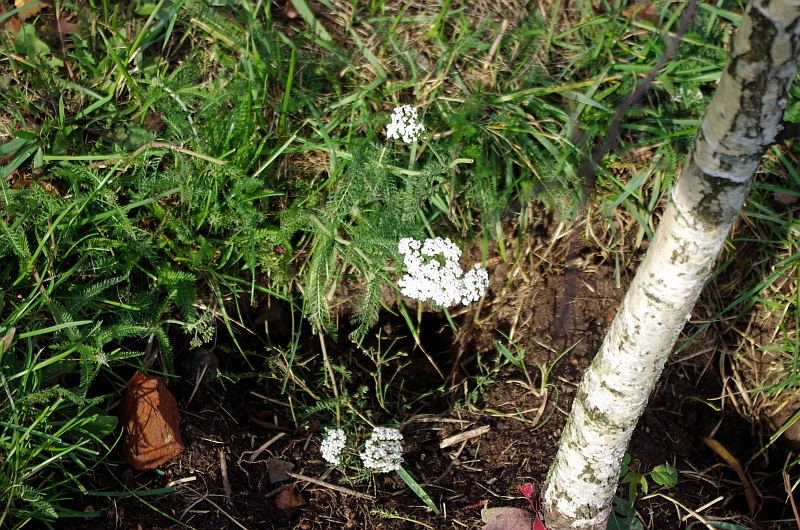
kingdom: Plantae
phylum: Tracheophyta
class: Magnoliopsida
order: Asterales
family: Asteraceae
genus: Achillea
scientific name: Achillea millefolium
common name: Yarrow
